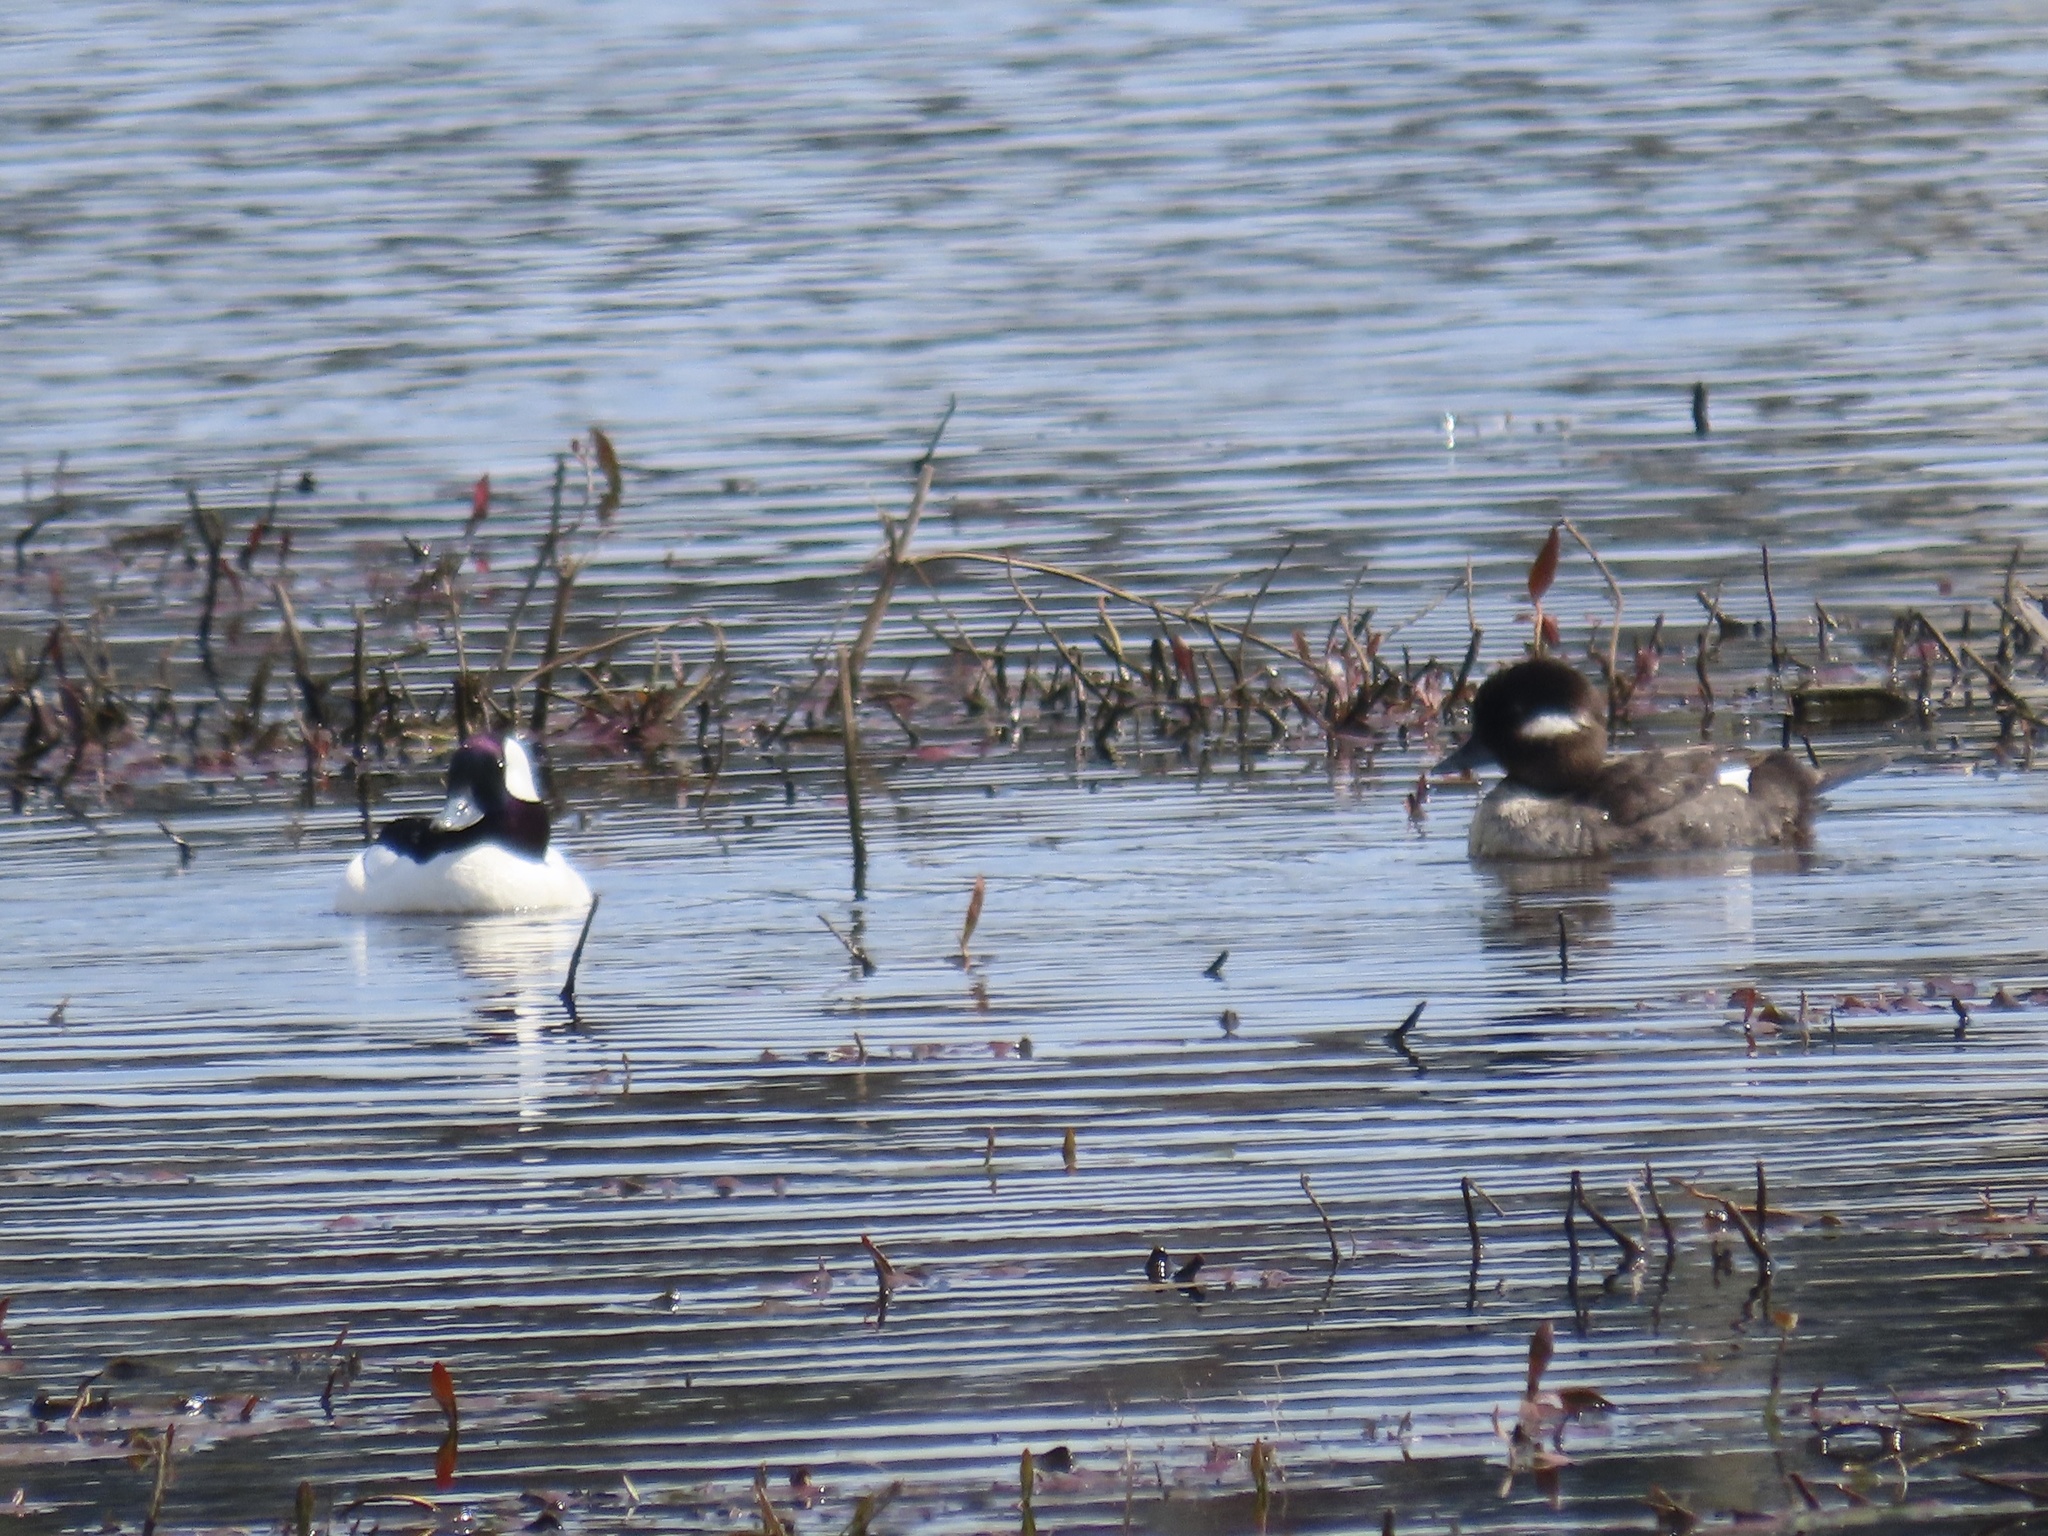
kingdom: Animalia
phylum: Chordata
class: Aves
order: Anseriformes
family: Anatidae
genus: Bucephala
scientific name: Bucephala albeola
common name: Bufflehead
